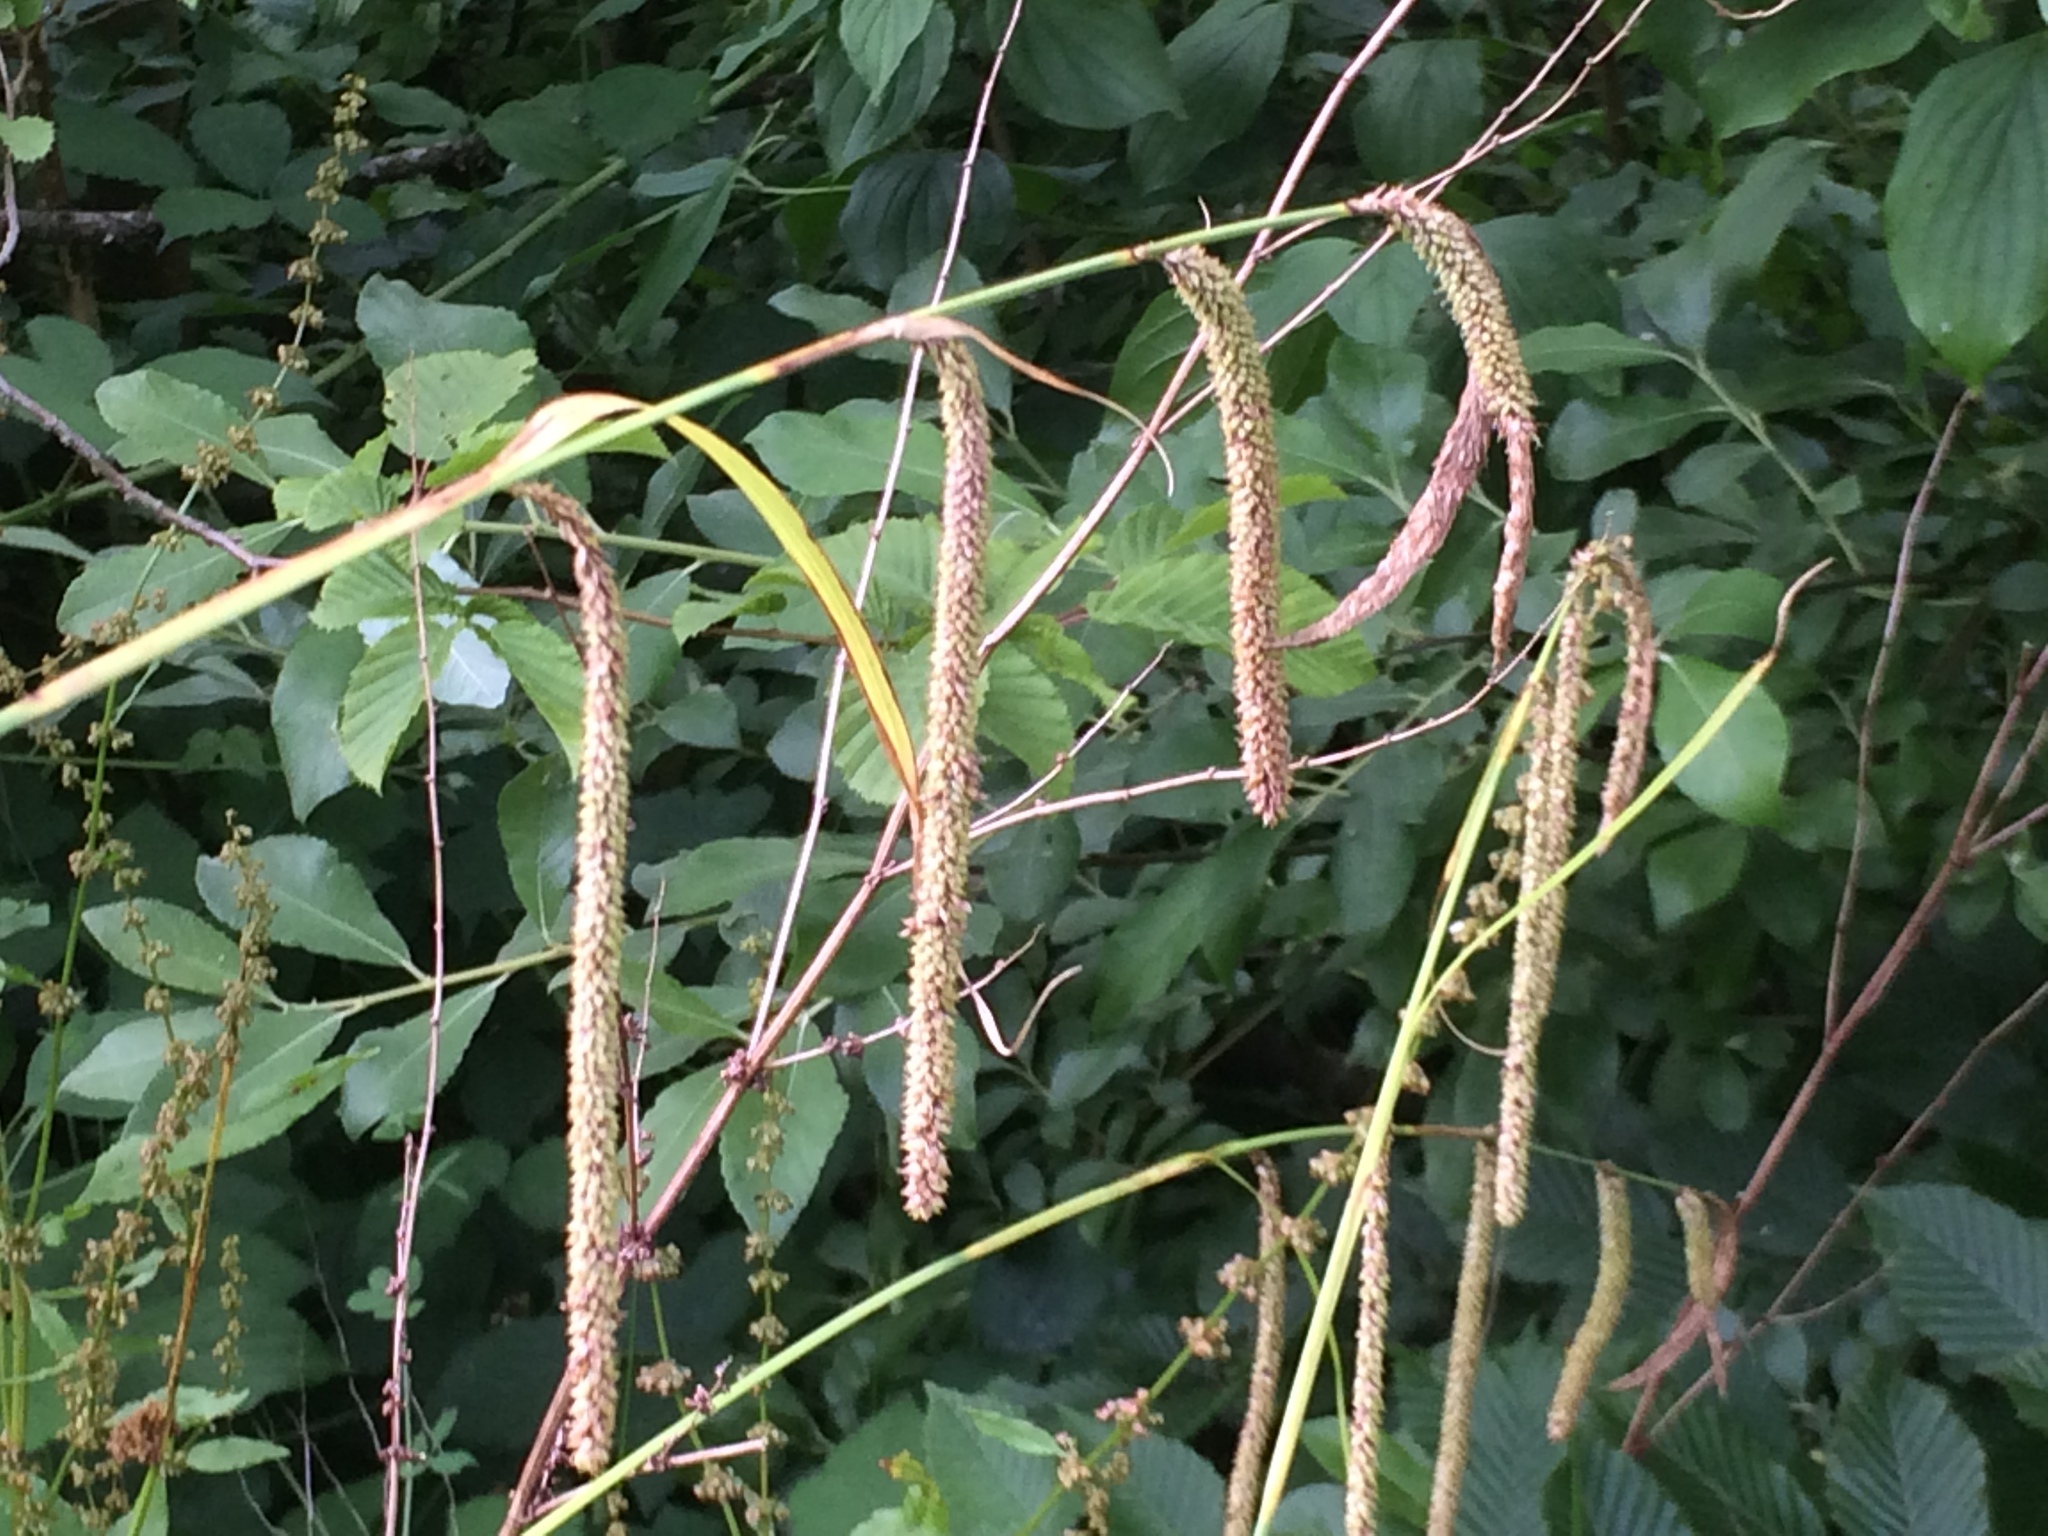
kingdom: Plantae
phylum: Tracheophyta
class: Liliopsida
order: Poales
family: Cyperaceae
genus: Carex
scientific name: Carex pendula
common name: Pendulous sedge
